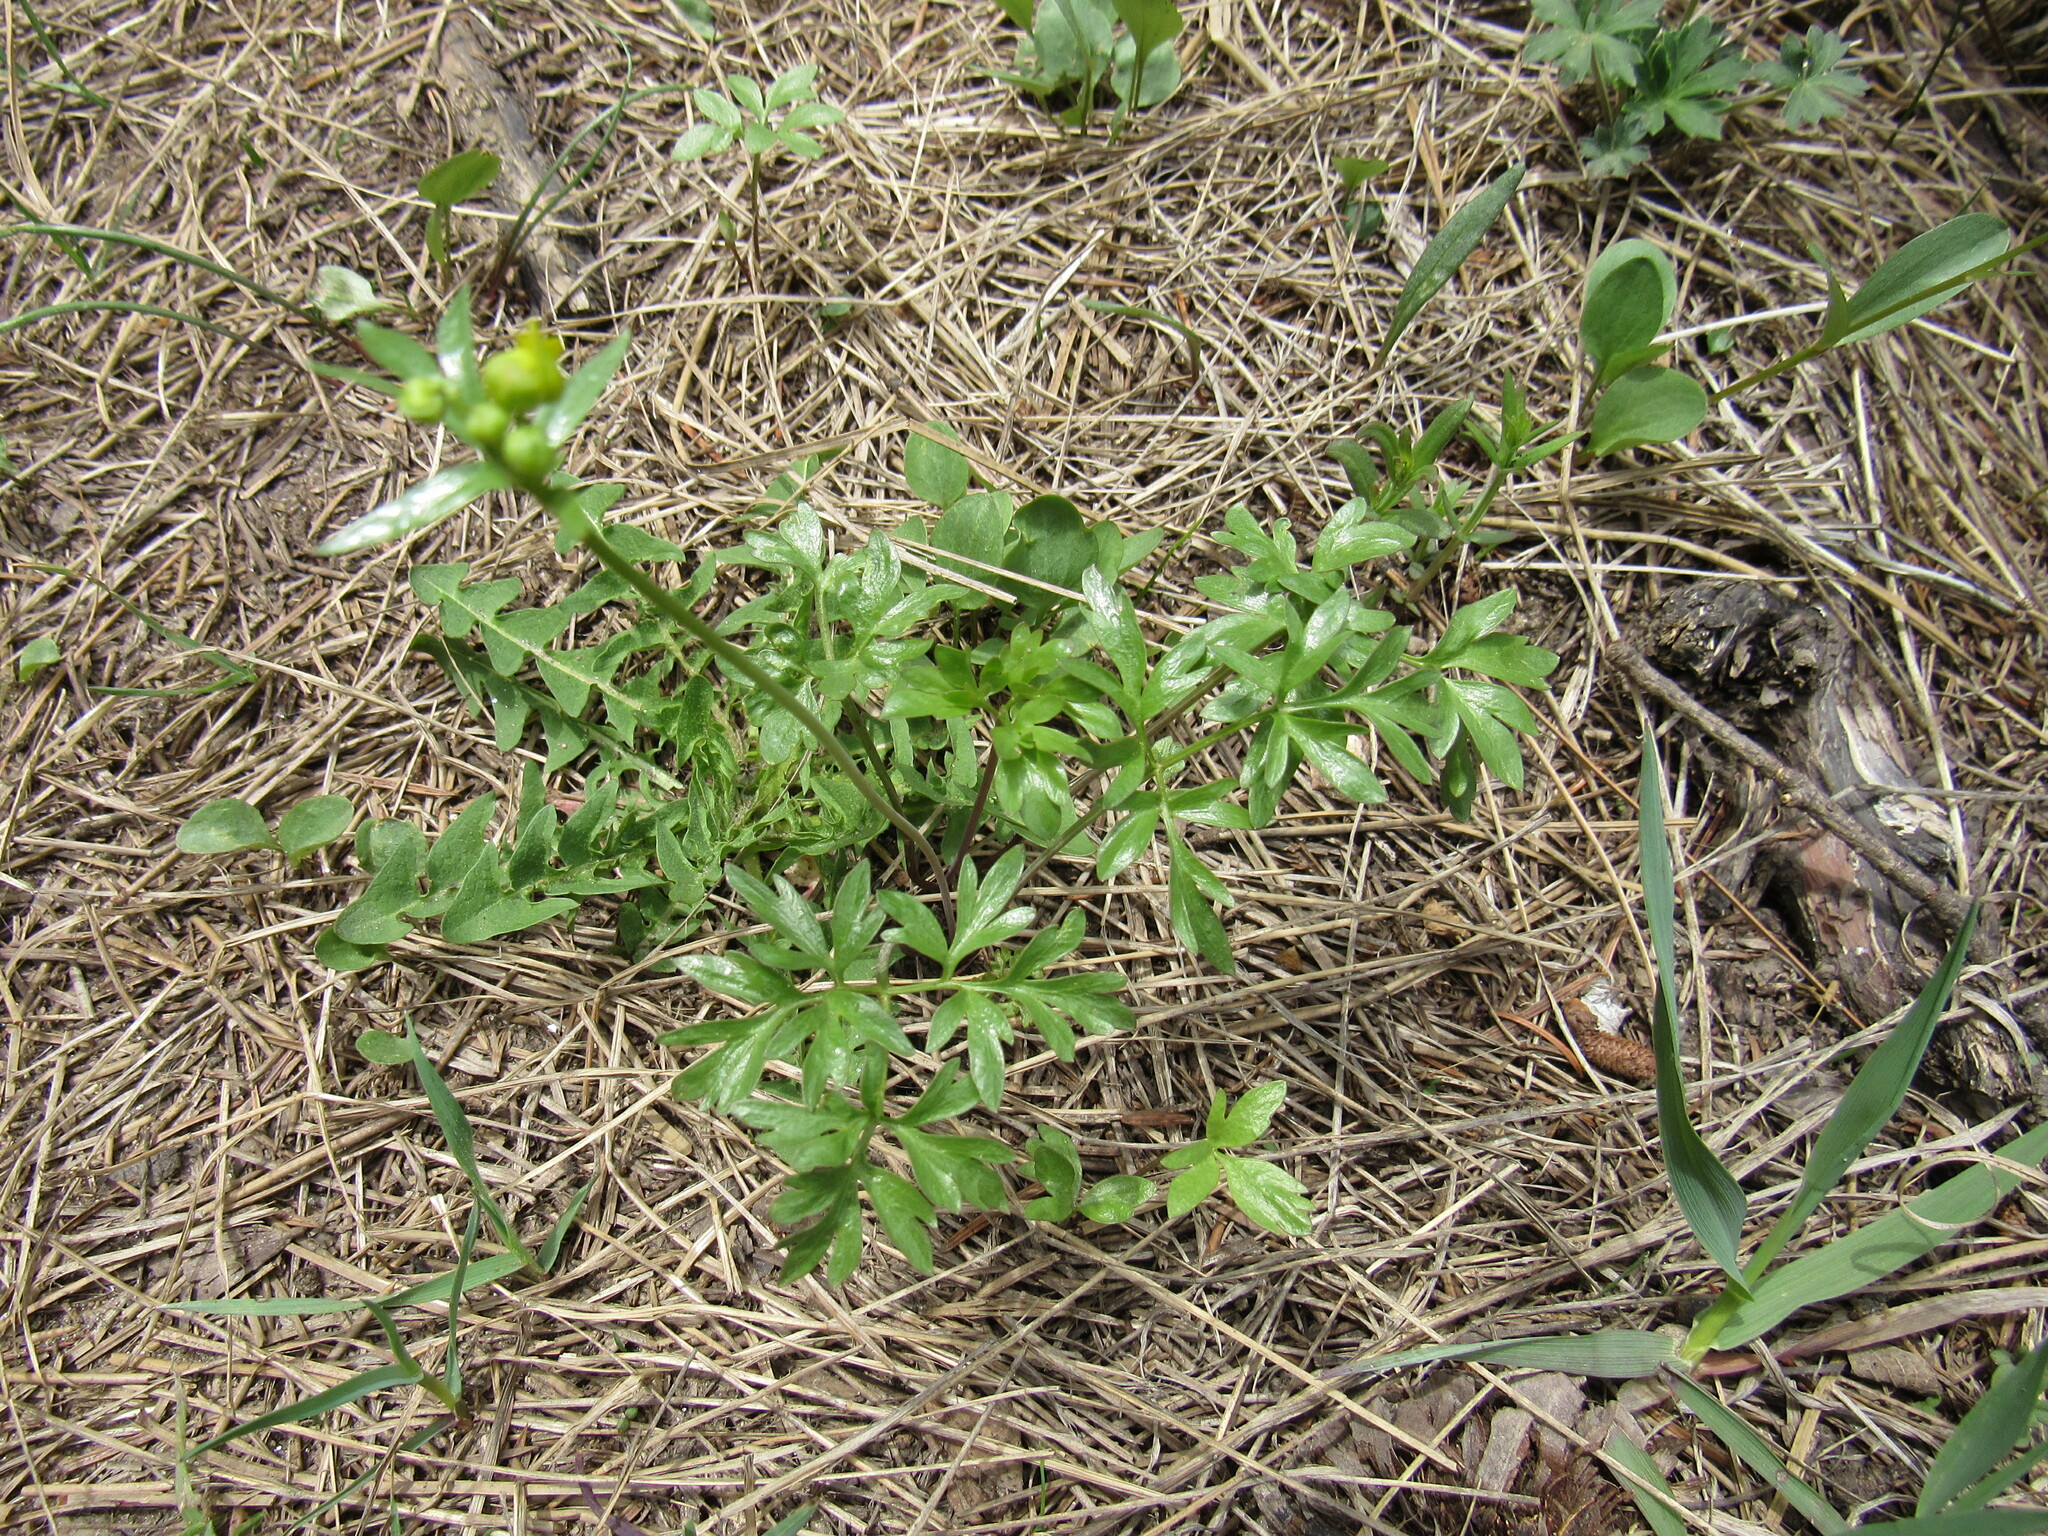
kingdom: Plantae
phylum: Tracheophyta
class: Magnoliopsida
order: Ranunculales
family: Ranunculaceae
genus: Cyrtorhyncha
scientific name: Cyrtorhyncha ranunculina
